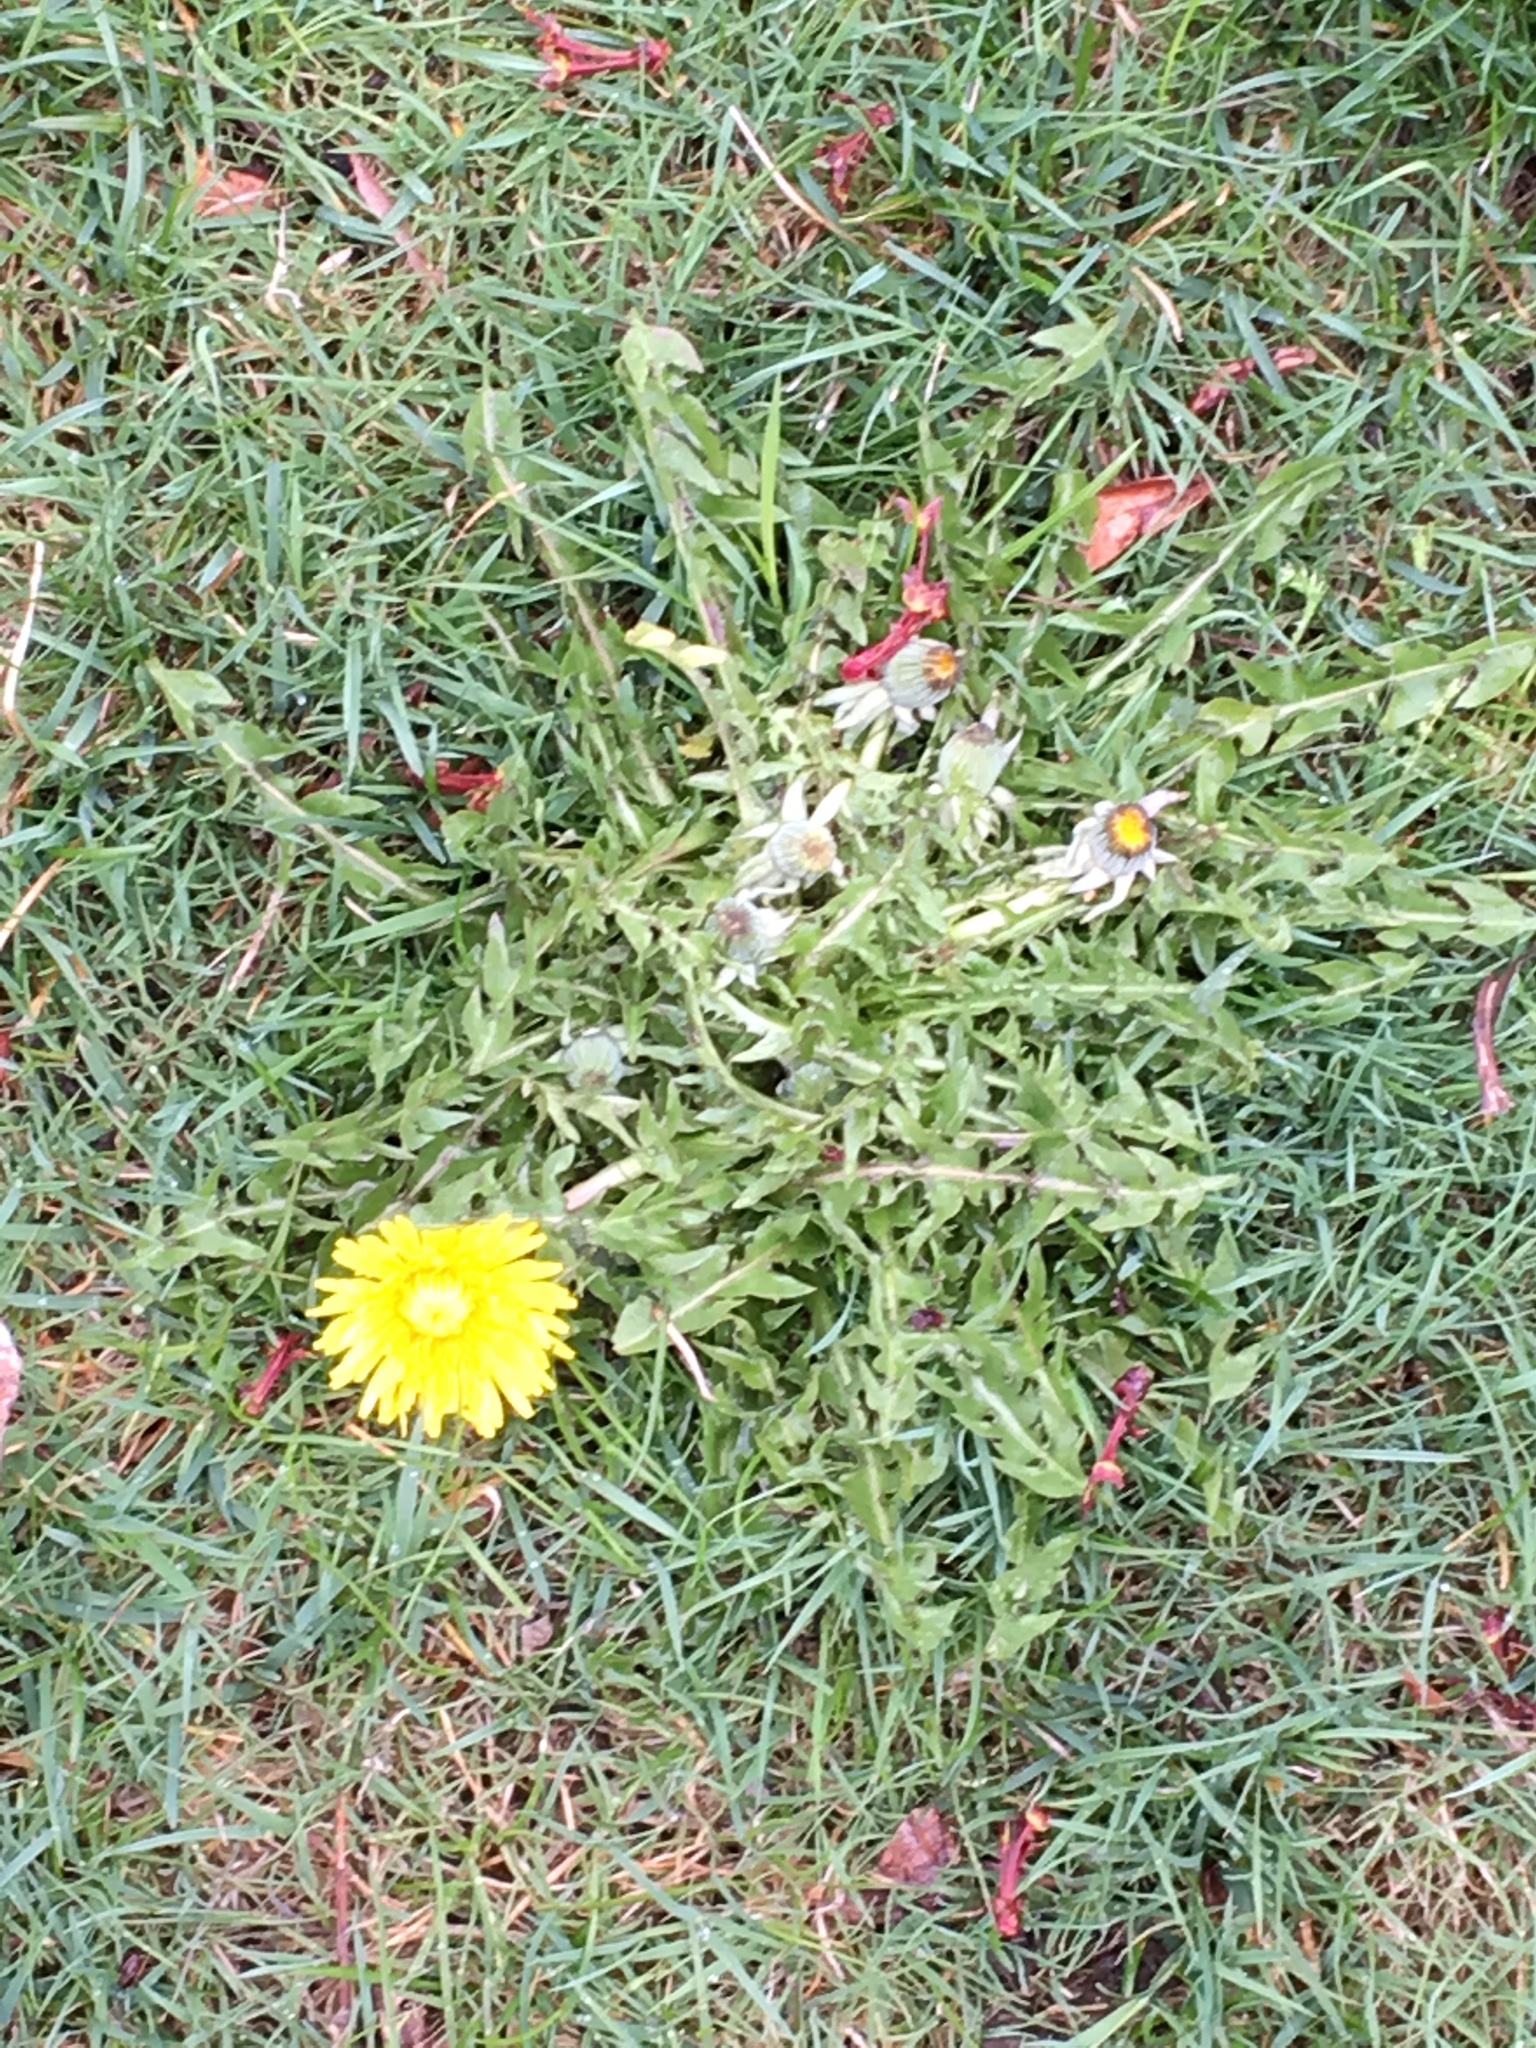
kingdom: Plantae
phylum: Tracheophyta
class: Magnoliopsida
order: Asterales
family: Asteraceae
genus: Taraxacum
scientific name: Taraxacum officinale
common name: Common dandelion
